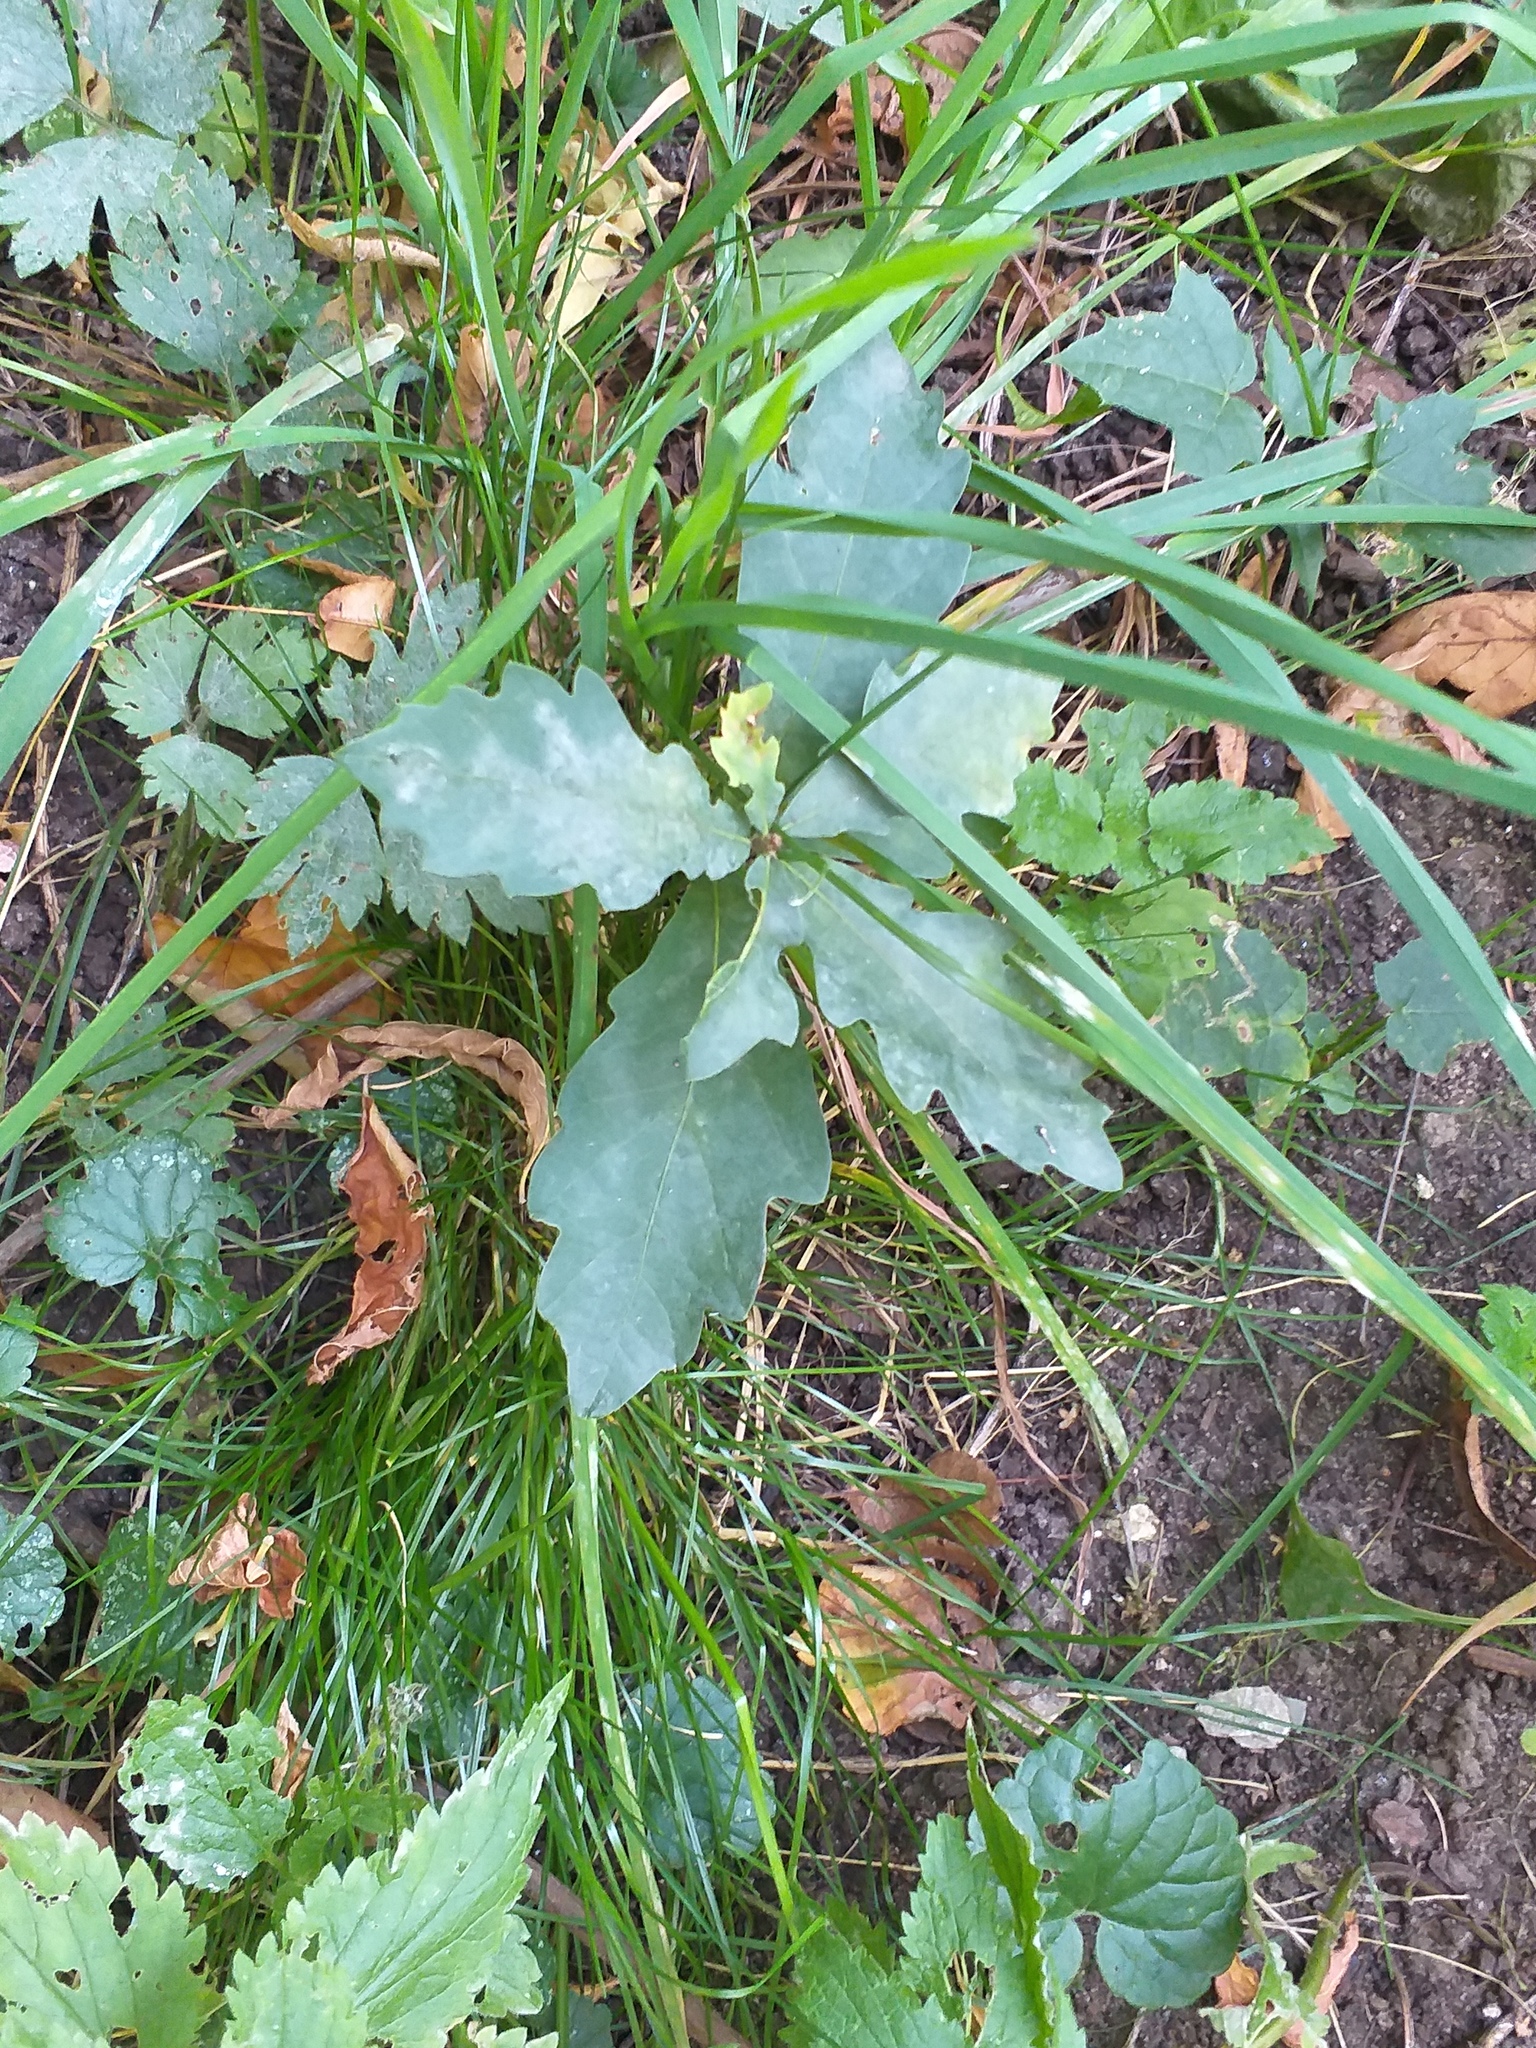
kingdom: Plantae
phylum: Tracheophyta
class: Magnoliopsida
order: Fagales
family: Fagaceae
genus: Quercus
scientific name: Quercus robur
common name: Pedunculate oak
